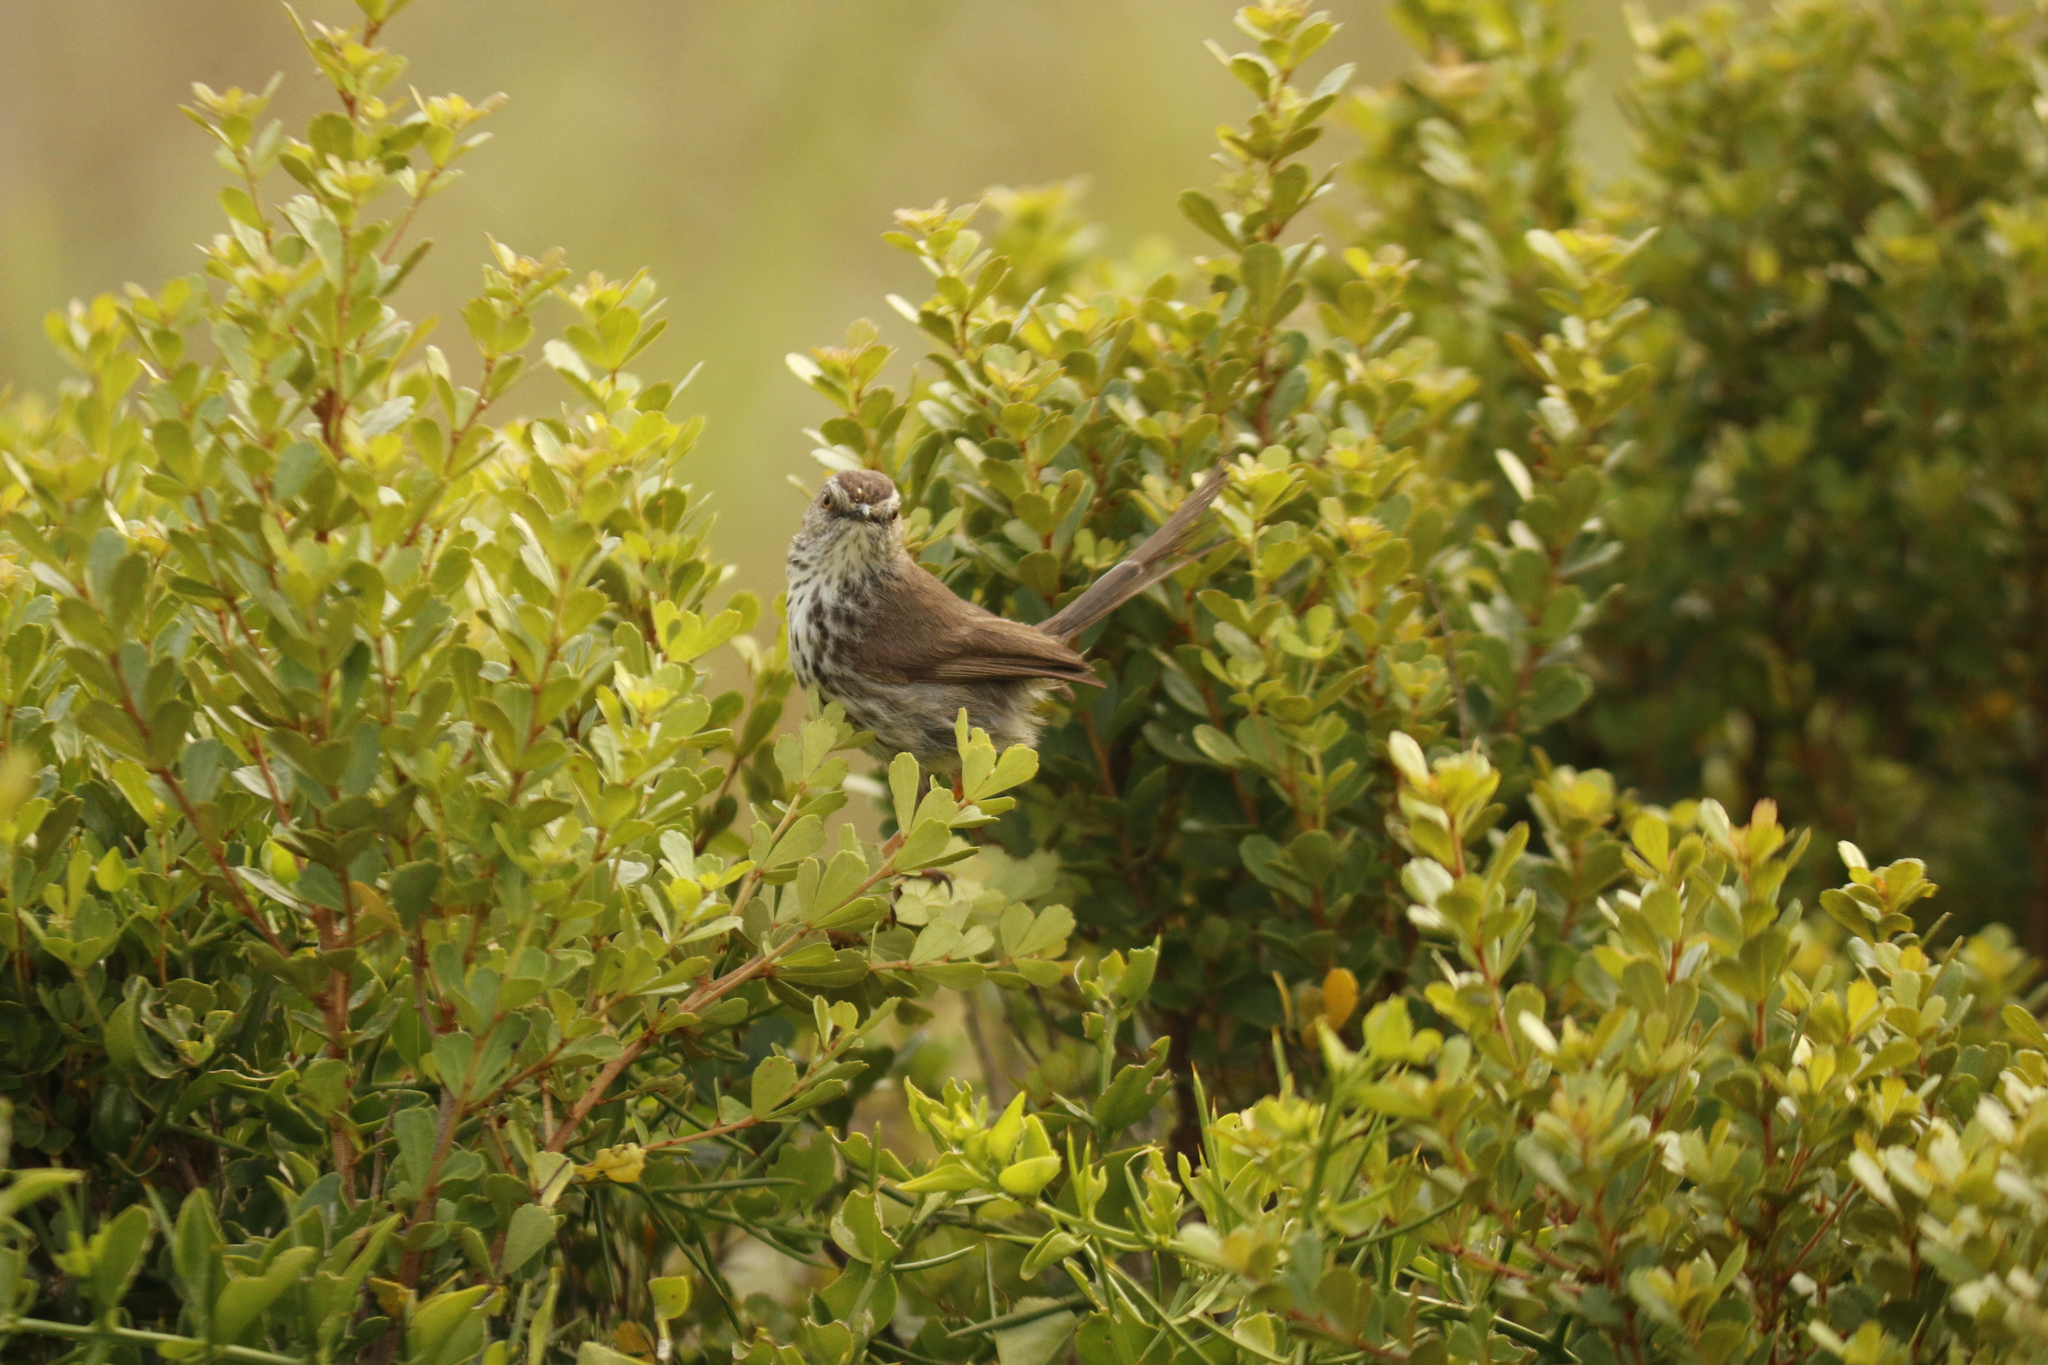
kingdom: Animalia
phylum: Chordata
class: Aves
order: Passeriformes
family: Cisticolidae
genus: Prinia
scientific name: Prinia maculosa
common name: Karoo prinia
